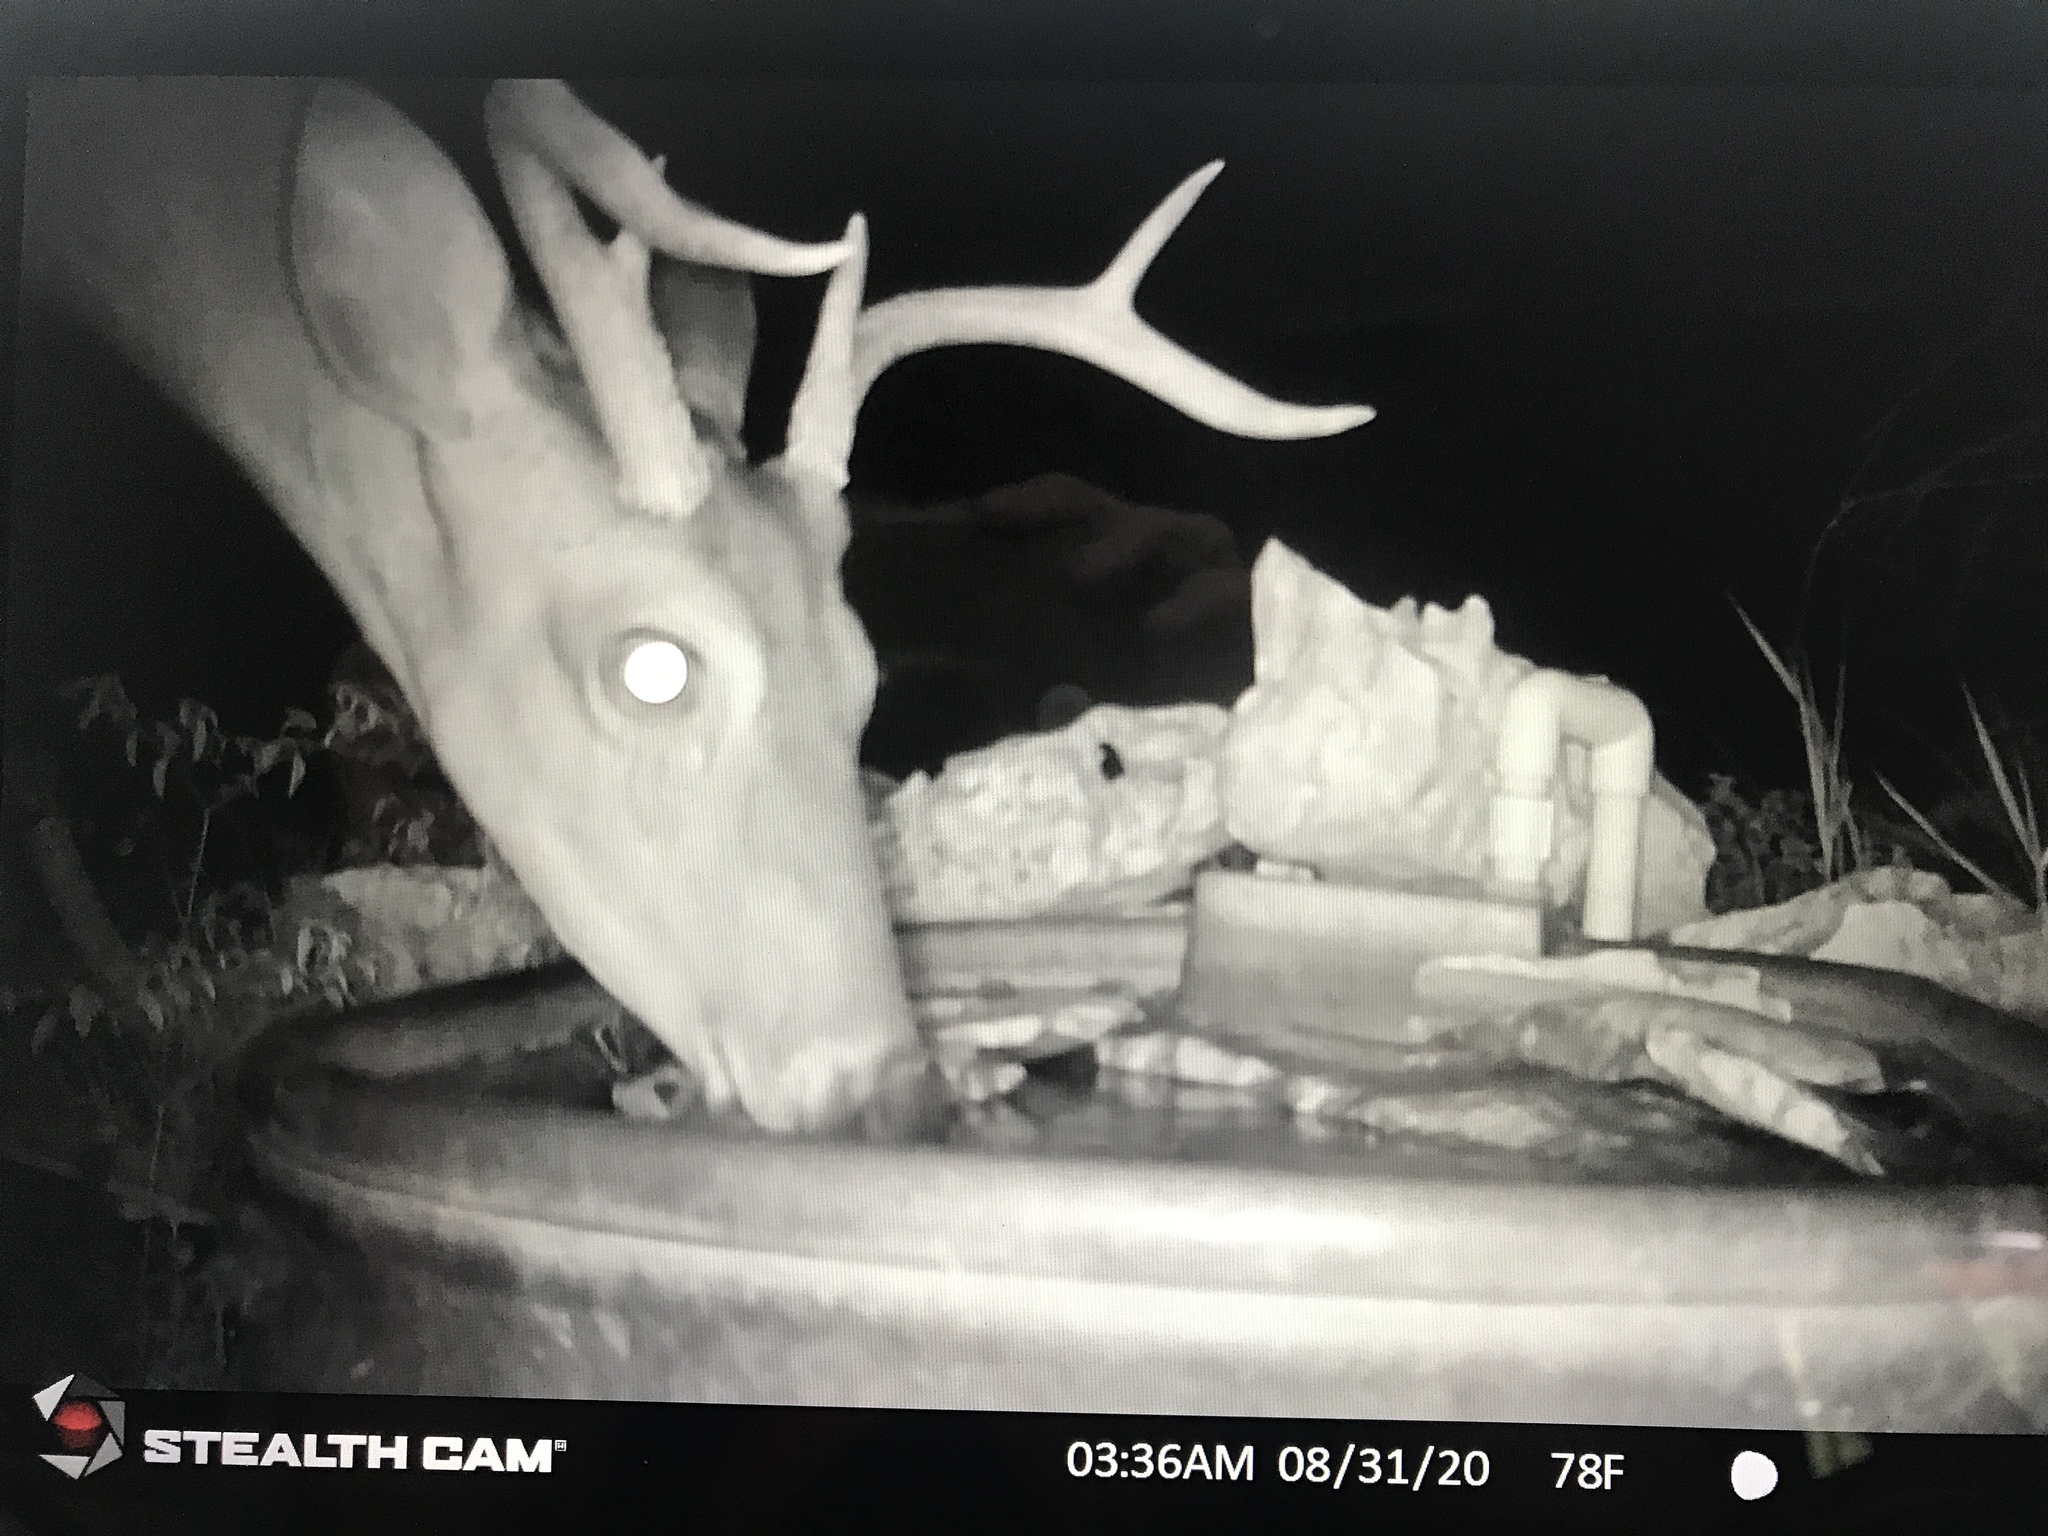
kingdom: Animalia
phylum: Chordata
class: Mammalia
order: Artiodactyla
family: Cervidae
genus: Odocoileus
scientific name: Odocoileus virginianus
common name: White-tailed deer
